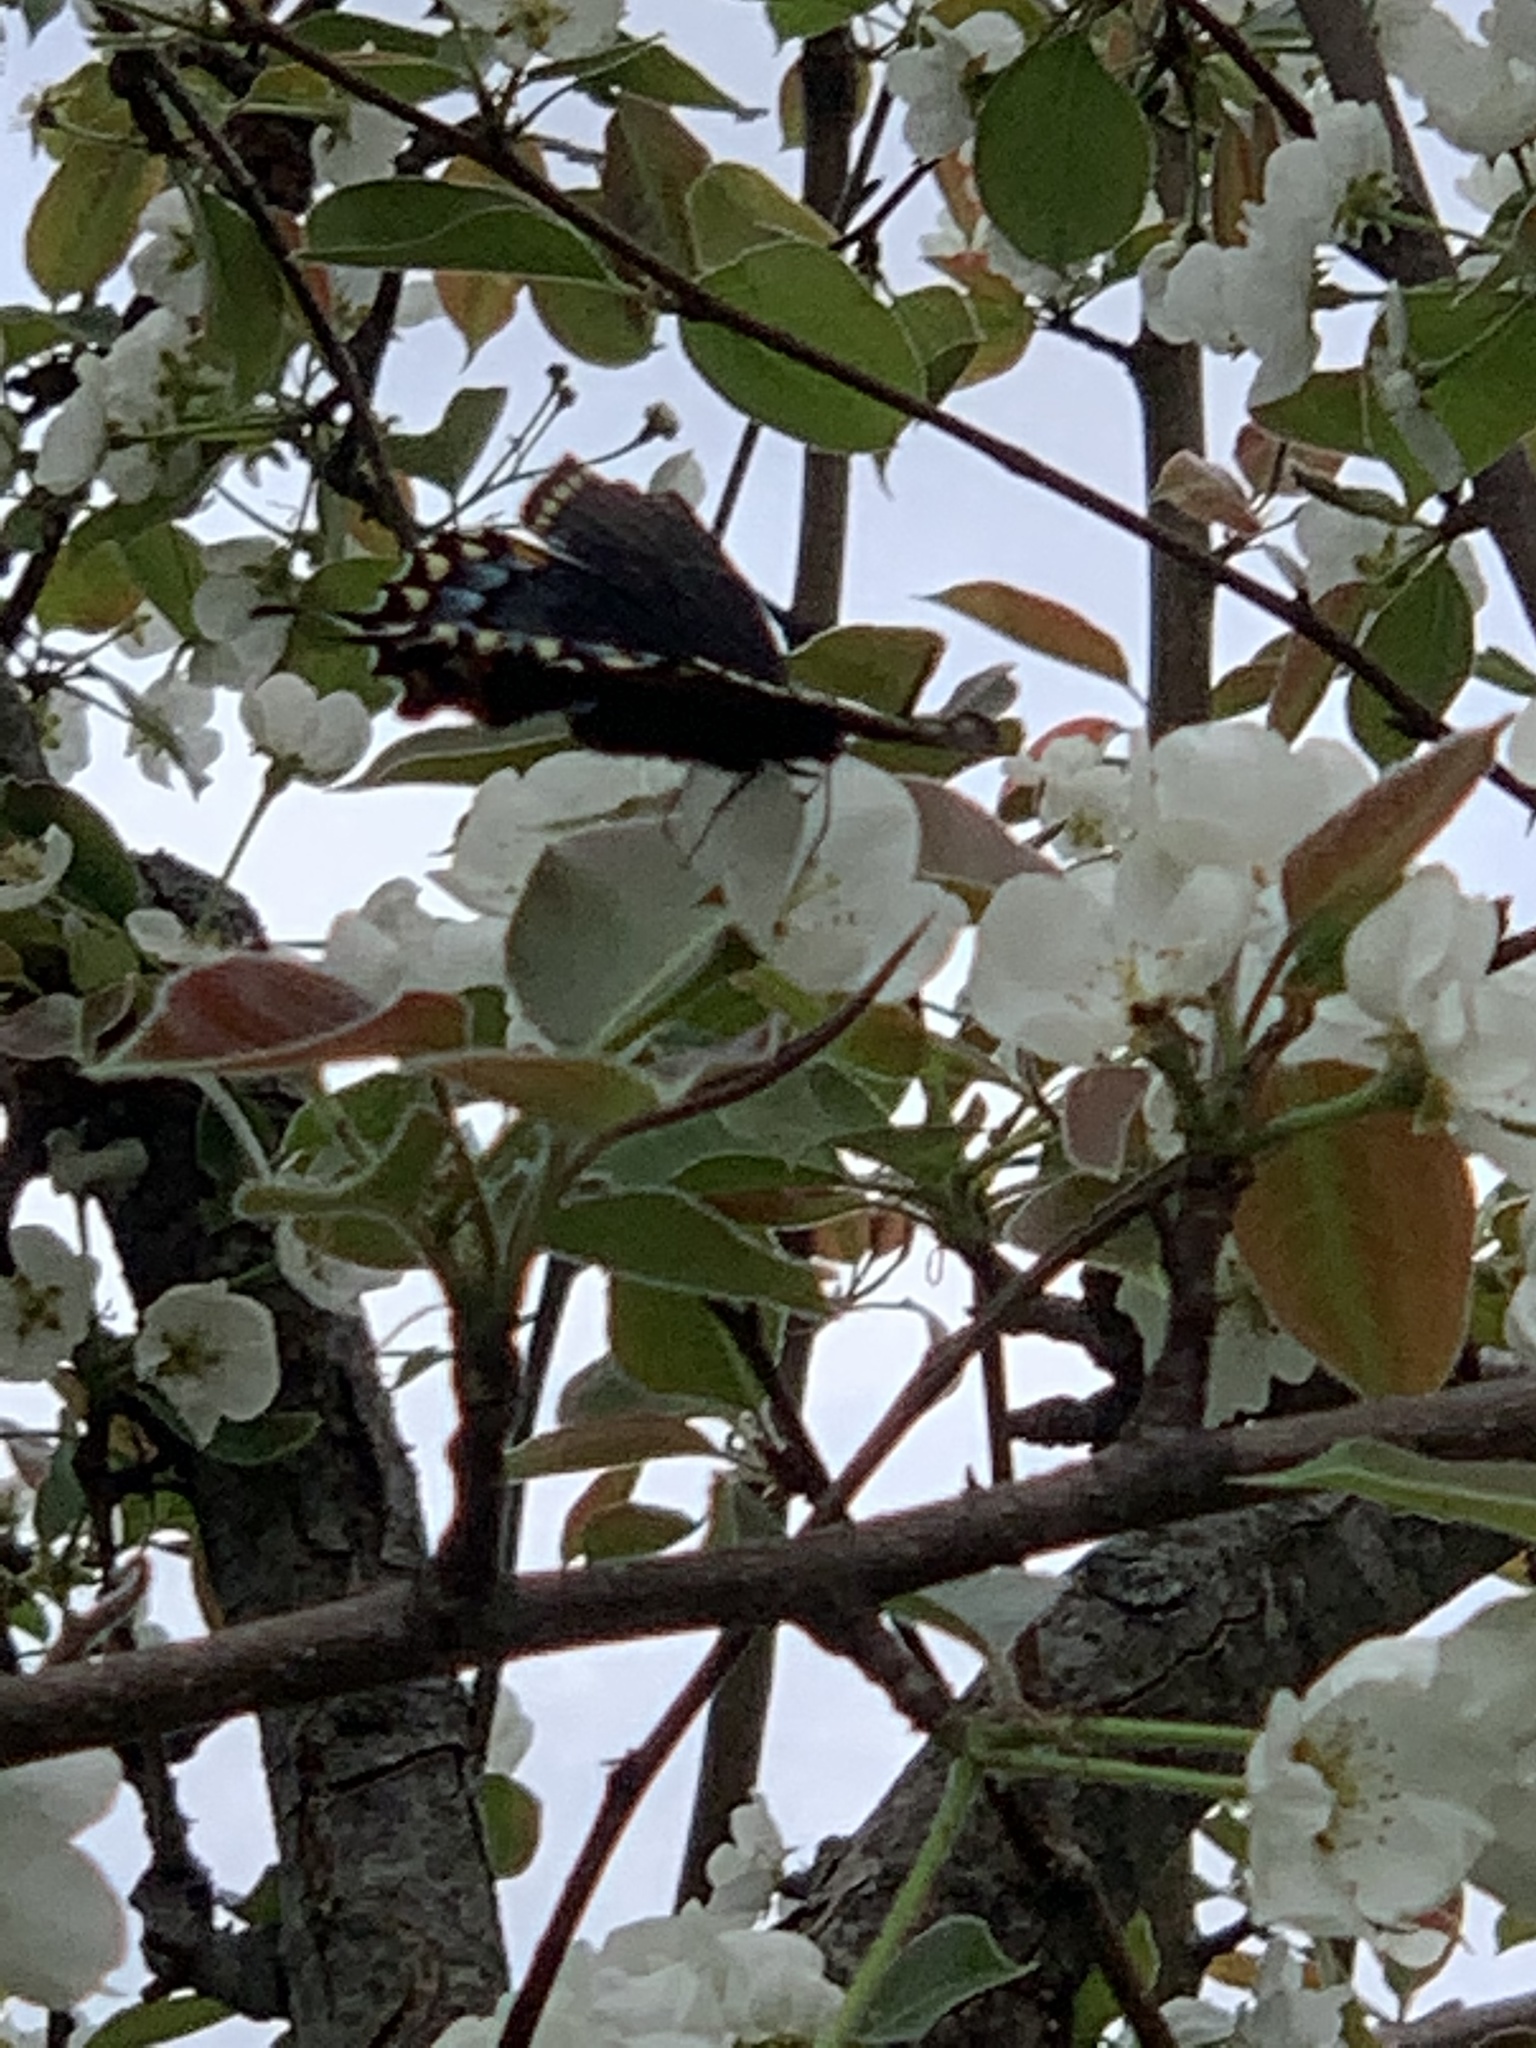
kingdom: Animalia
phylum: Arthropoda
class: Insecta
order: Lepidoptera
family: Papilionidae
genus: Papilio
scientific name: Papilio glaucus
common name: Tiger swallowtail
